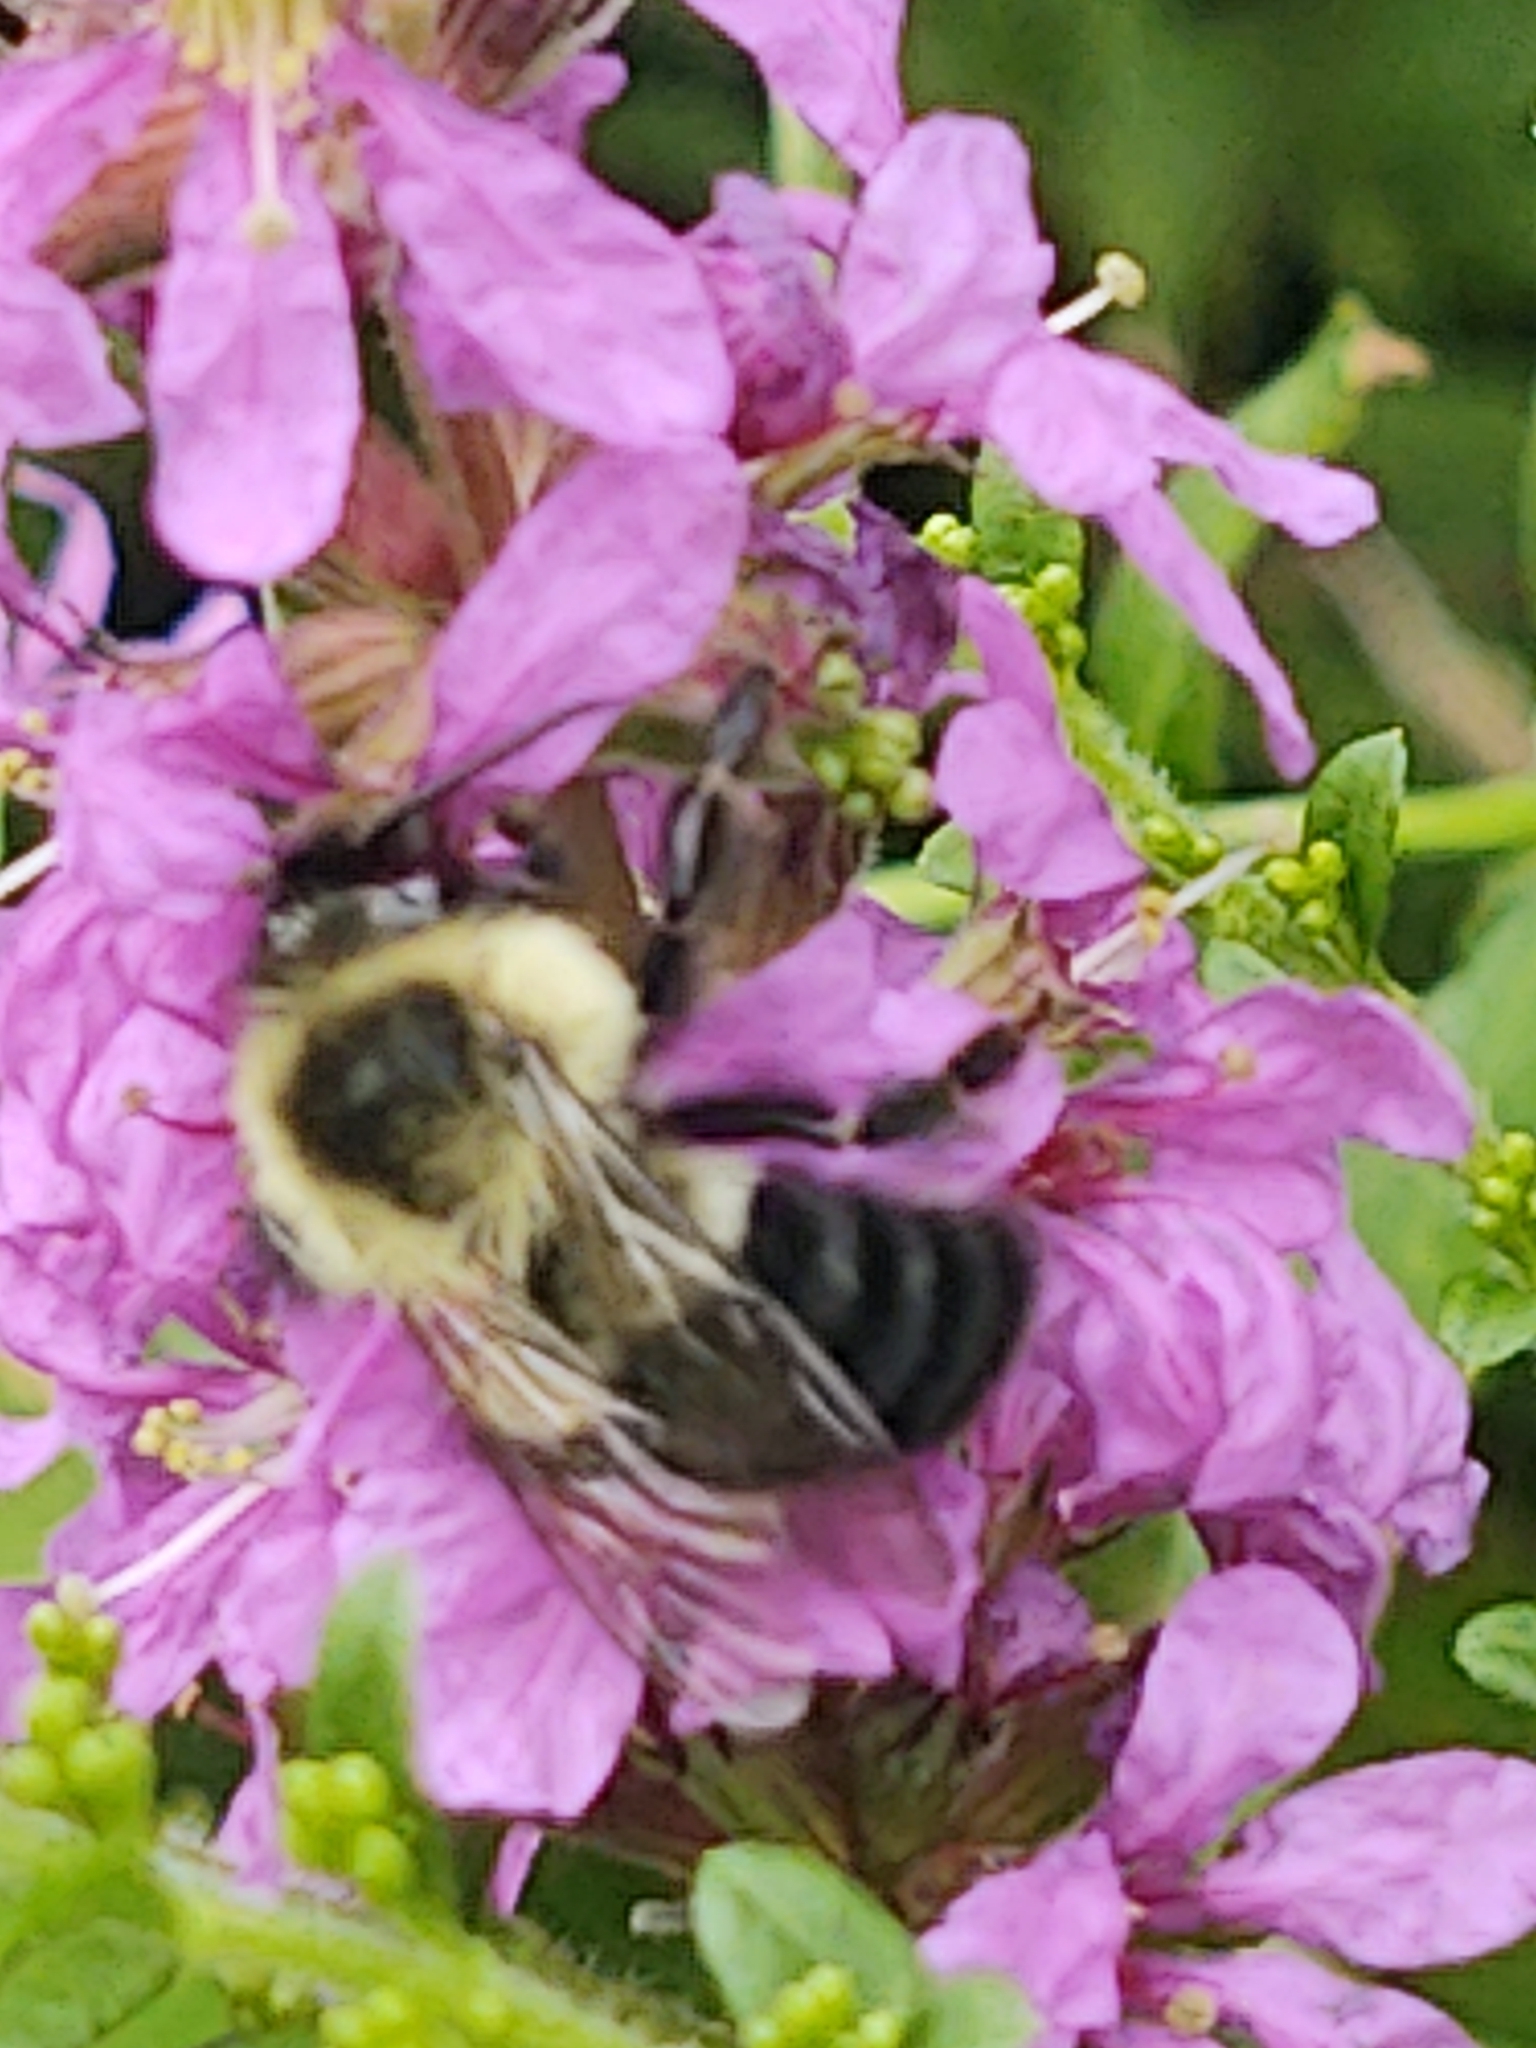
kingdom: Animalia
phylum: Arthropoda
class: Insecta
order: Hymenoptera
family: Apidae
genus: Bombus
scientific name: Bombus impatiens
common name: Common eastern bumble bee
